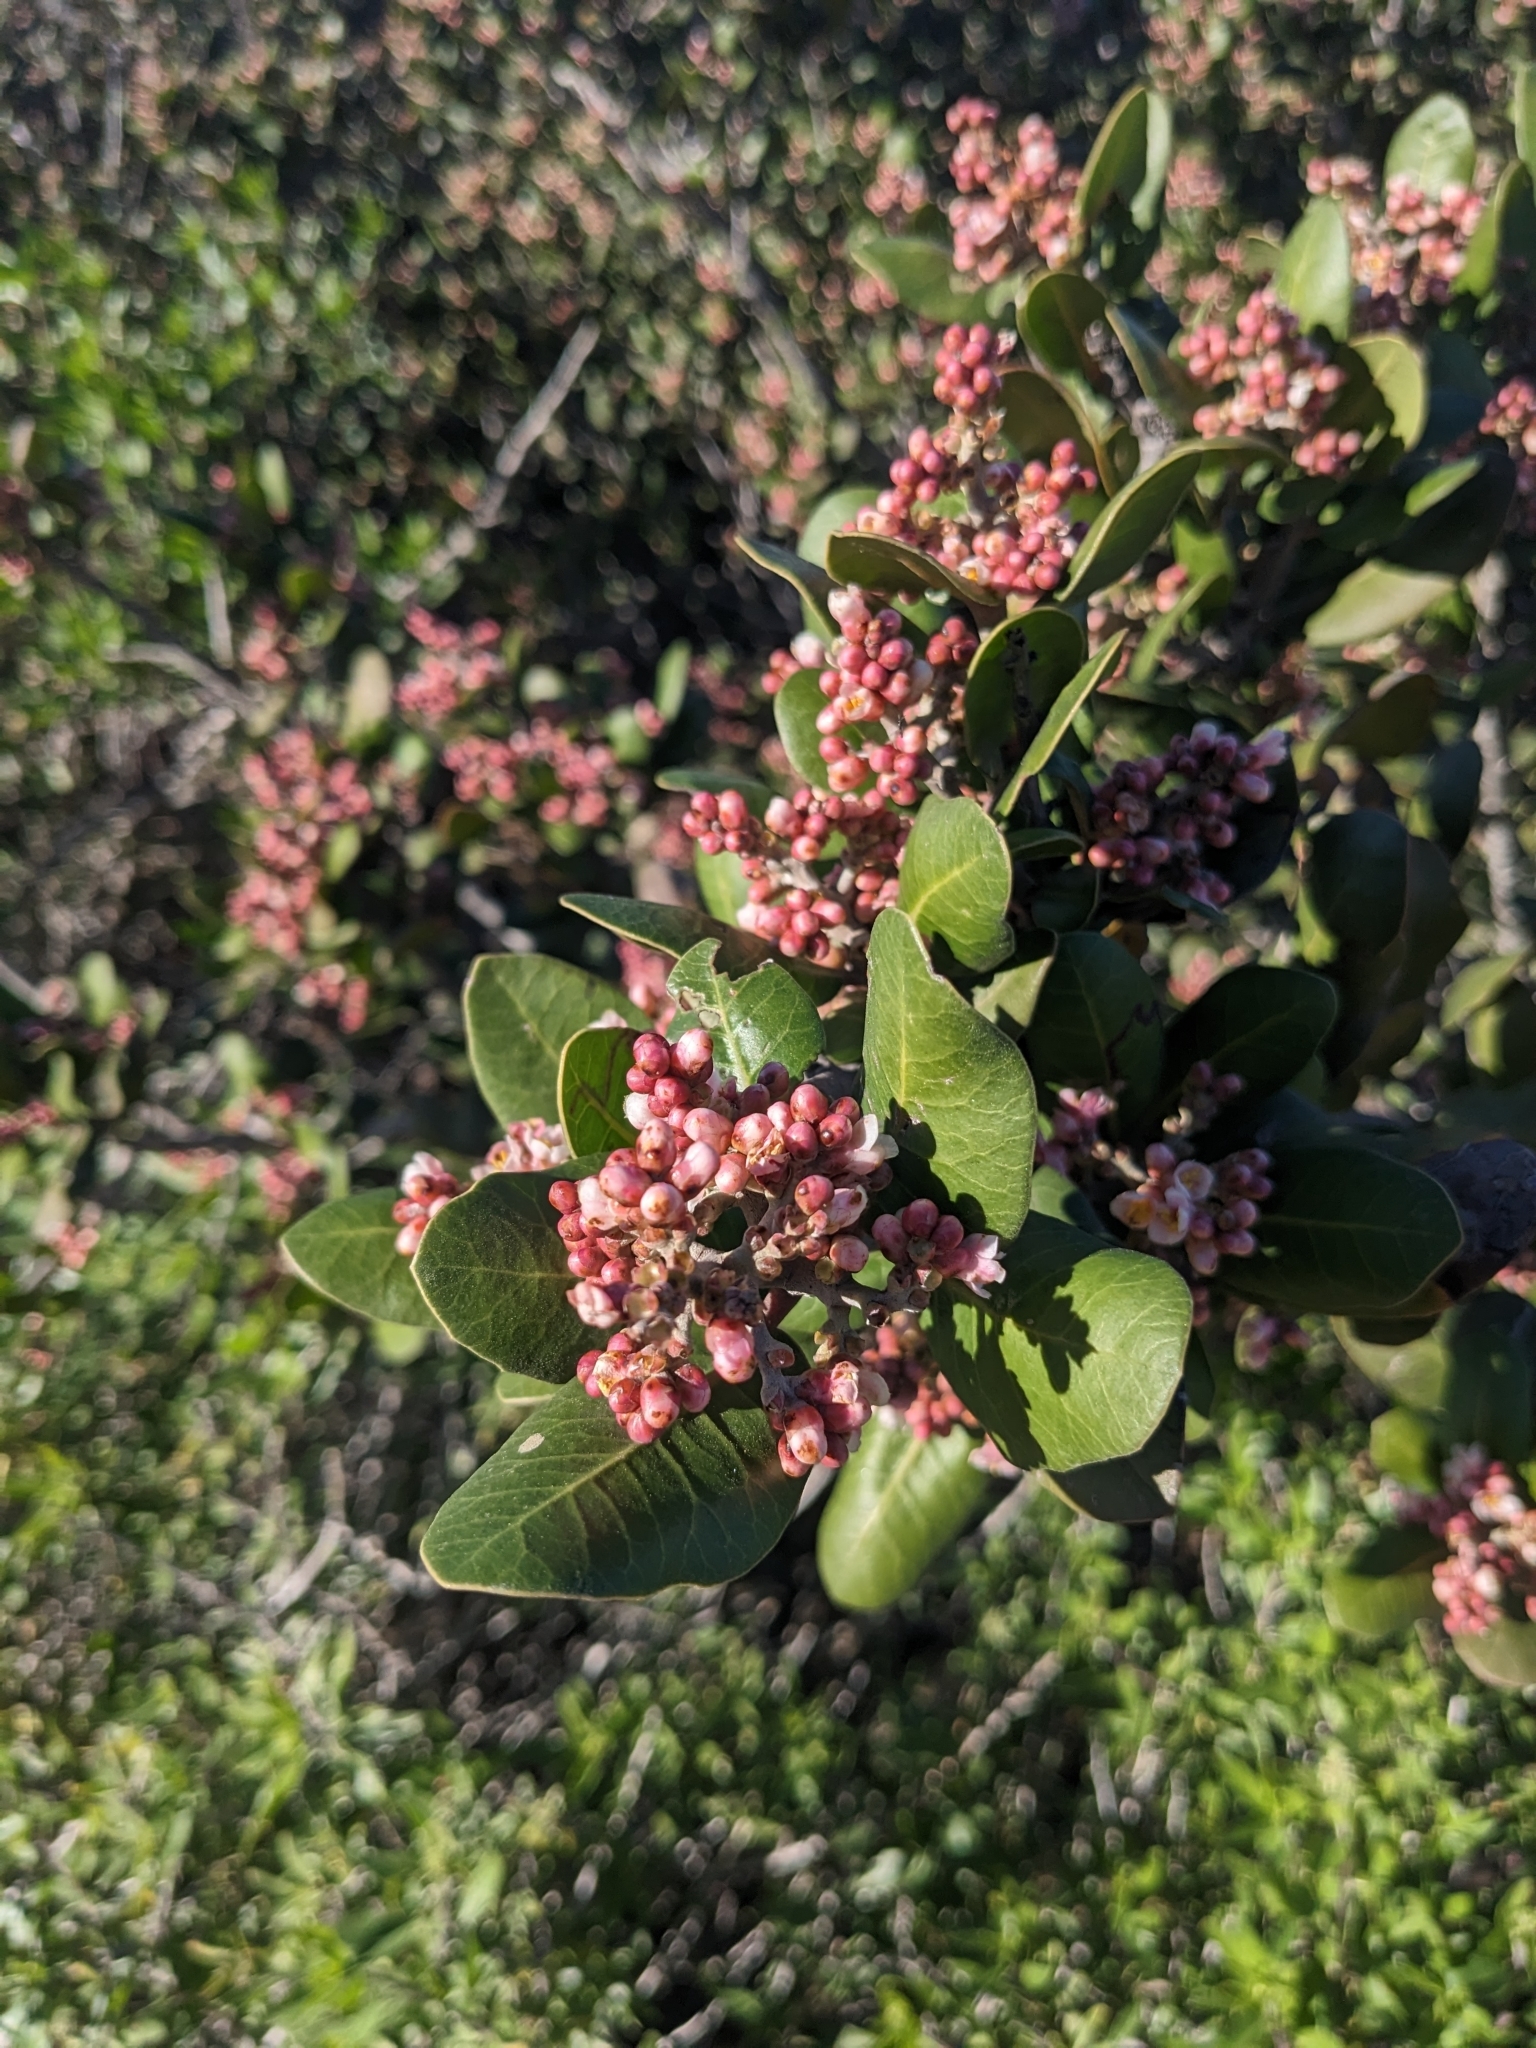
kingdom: Plantae
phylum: Tracheophyta
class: Magnoliopsida
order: Sapindales
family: Anacardiaceae
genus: Rhus
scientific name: Rhus integrifolia
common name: Lemonade sumac
